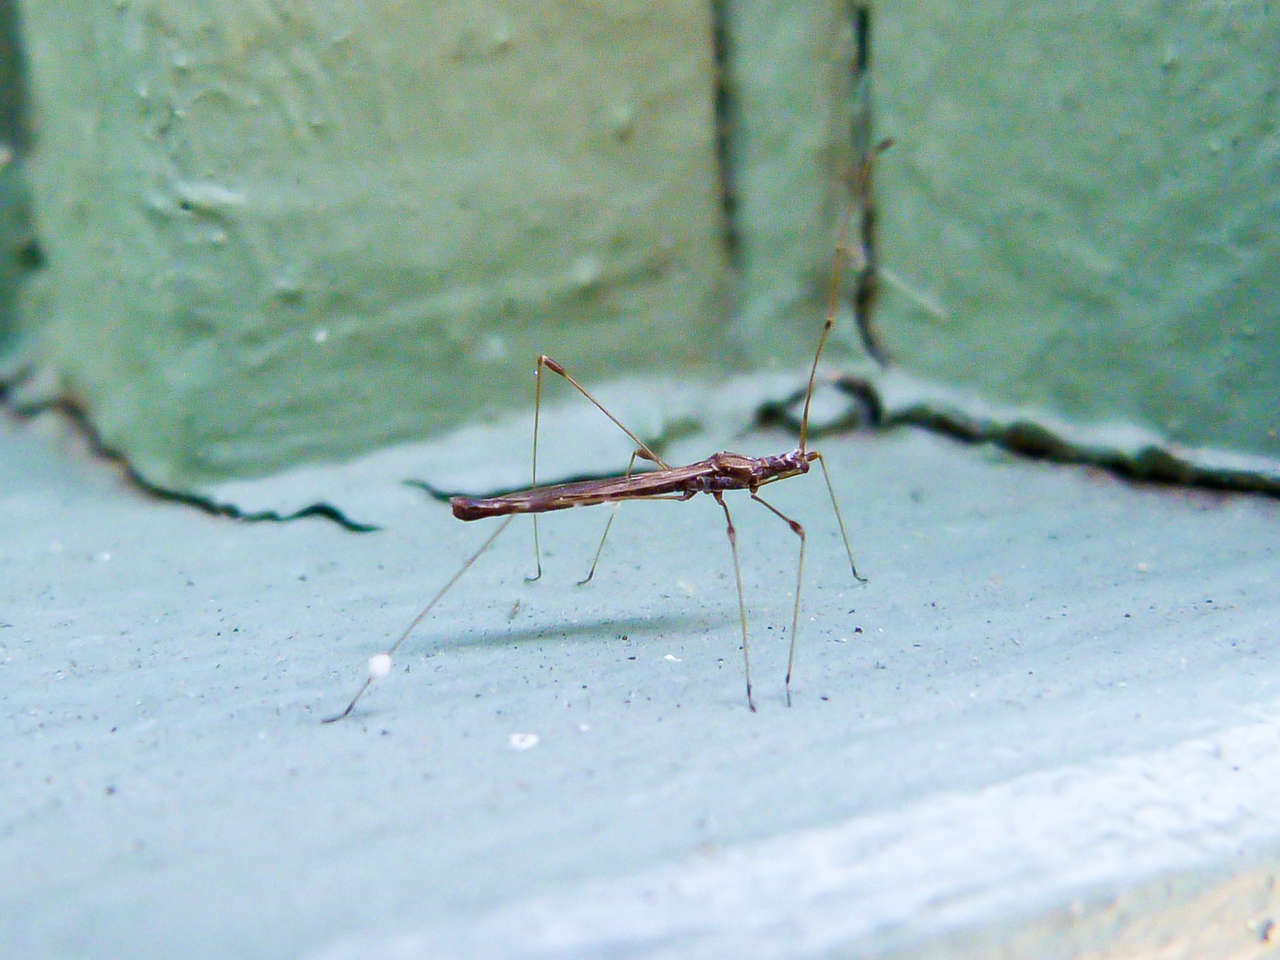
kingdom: Animalia
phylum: Arthropoda
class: Insecta
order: Hemiptera
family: Berytidae
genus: Chinoneides
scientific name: Chinoneides tasmaniensis
